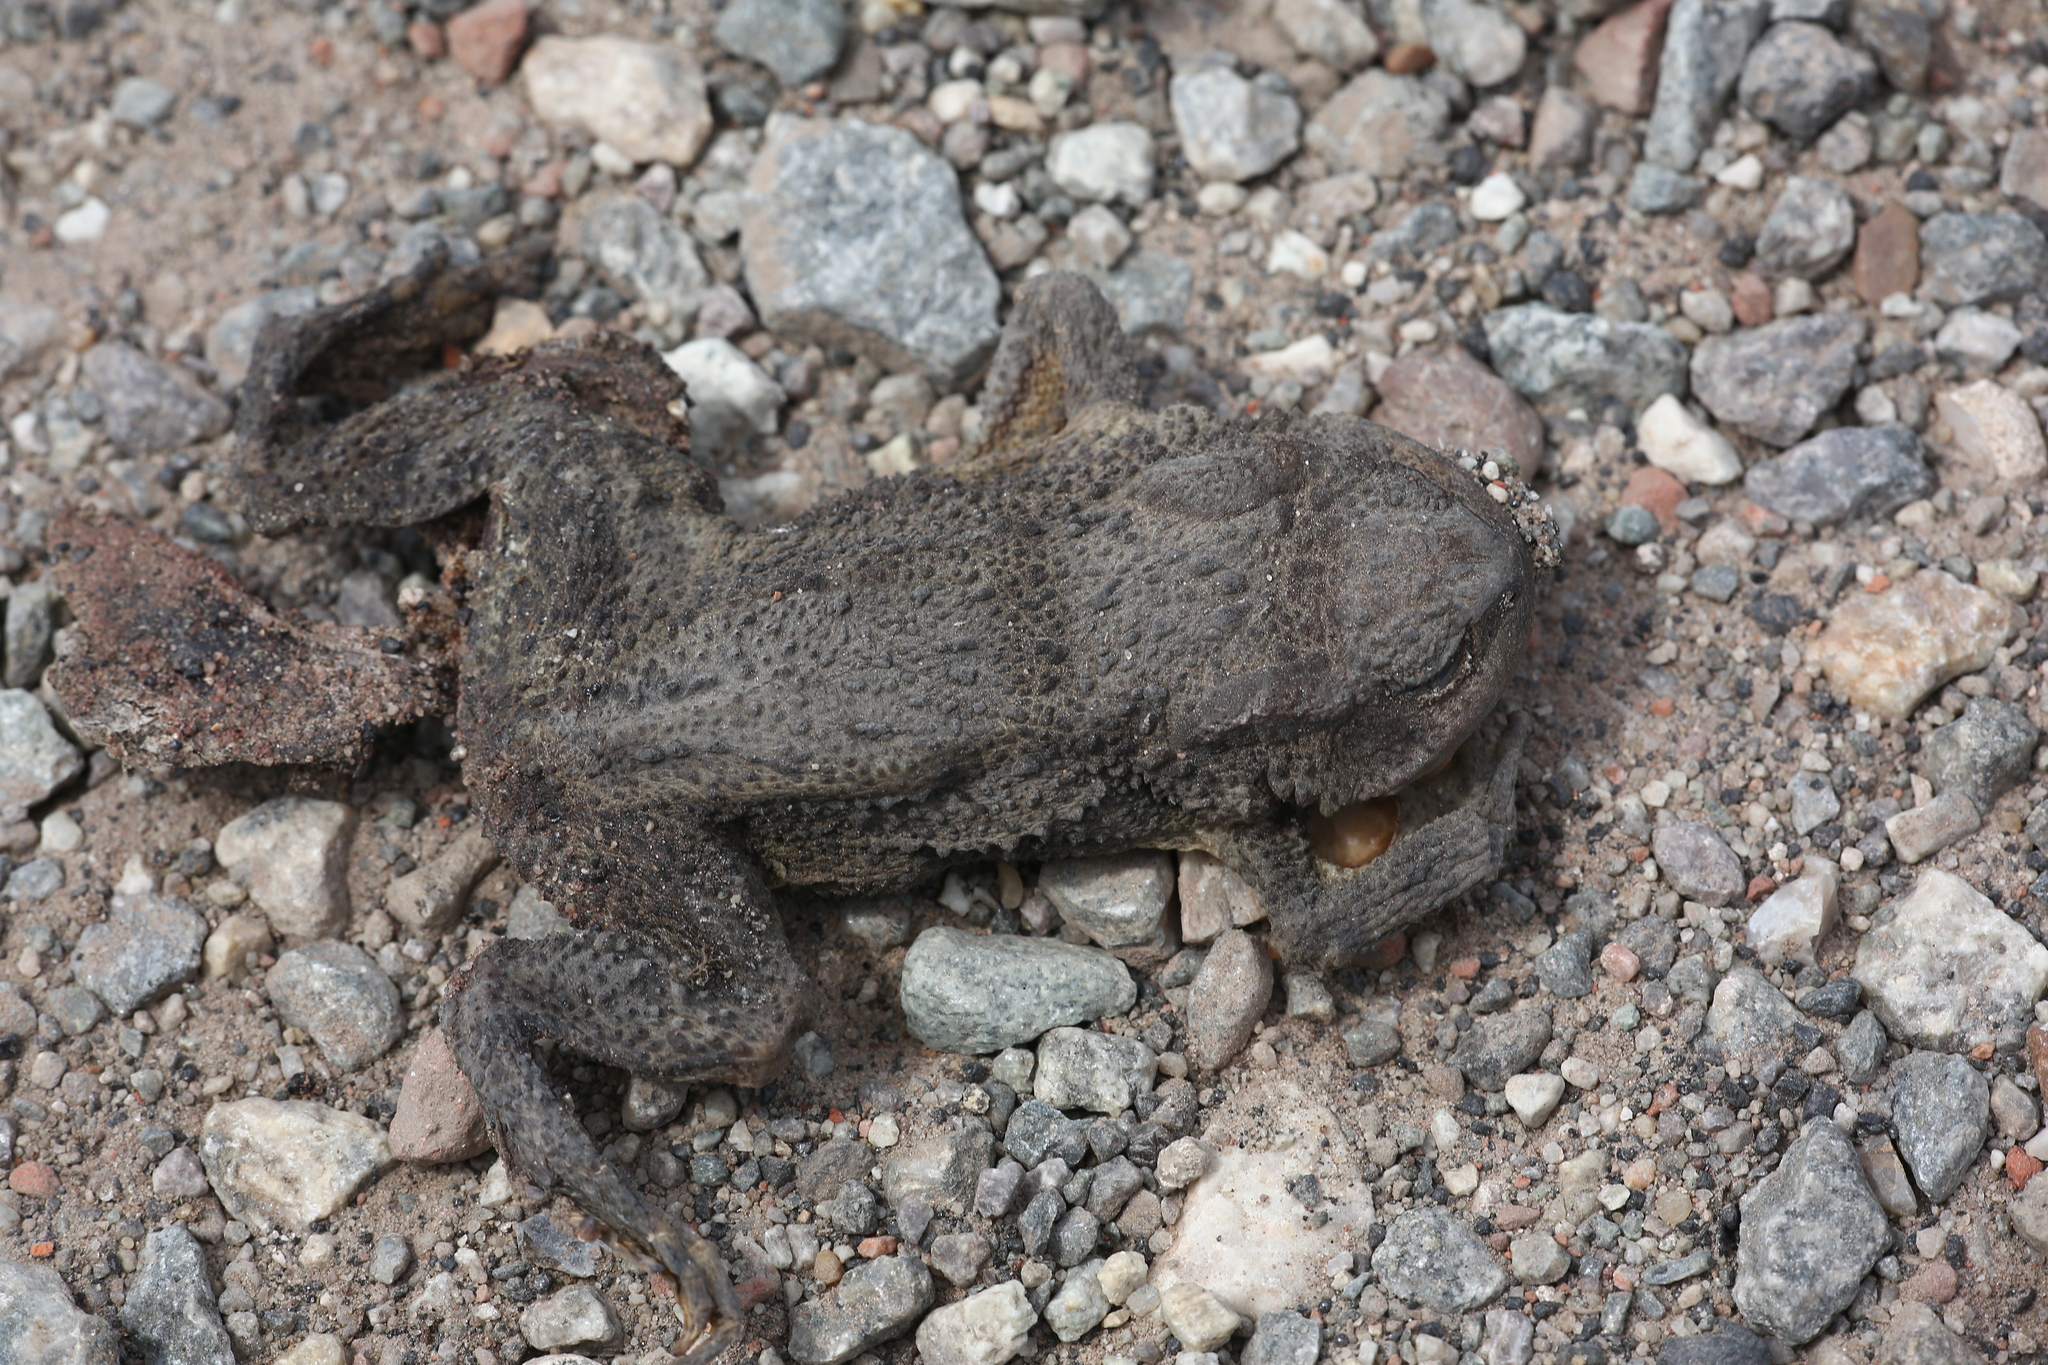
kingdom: Animalia
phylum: Chordata
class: Amphibia
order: Anura
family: Bufonidae
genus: Bufo
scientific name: Bufo bufo
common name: Common toad
